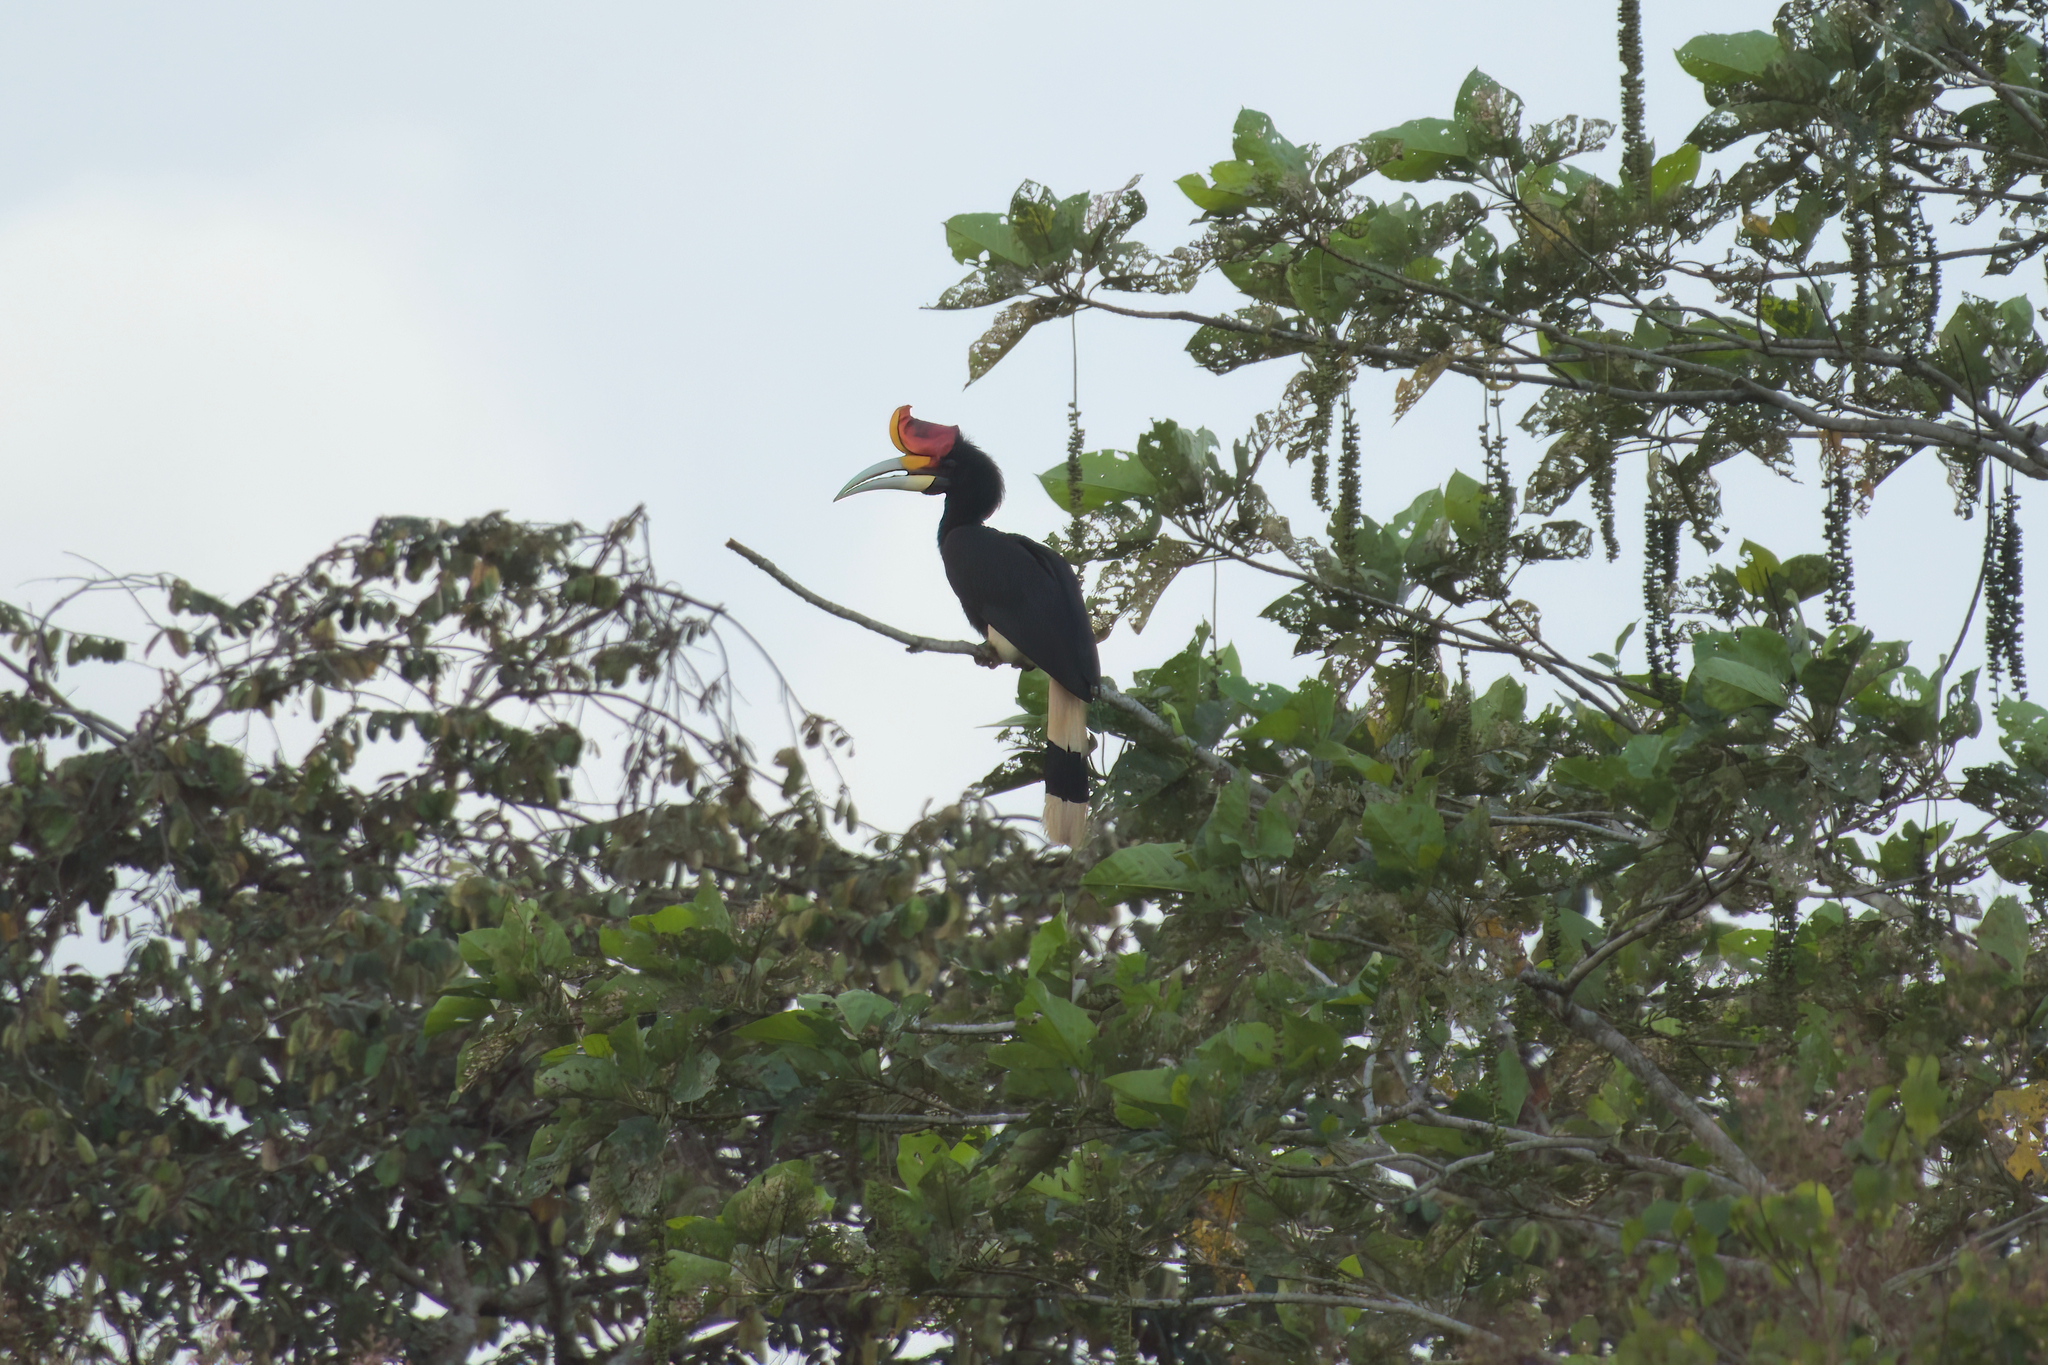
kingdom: Animalia
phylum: Chordata
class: Aves
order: Bucerotiformes
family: Bucerotidae
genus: Buceros
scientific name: Buceros rhinoceros
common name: Rhinoceros hornbill
